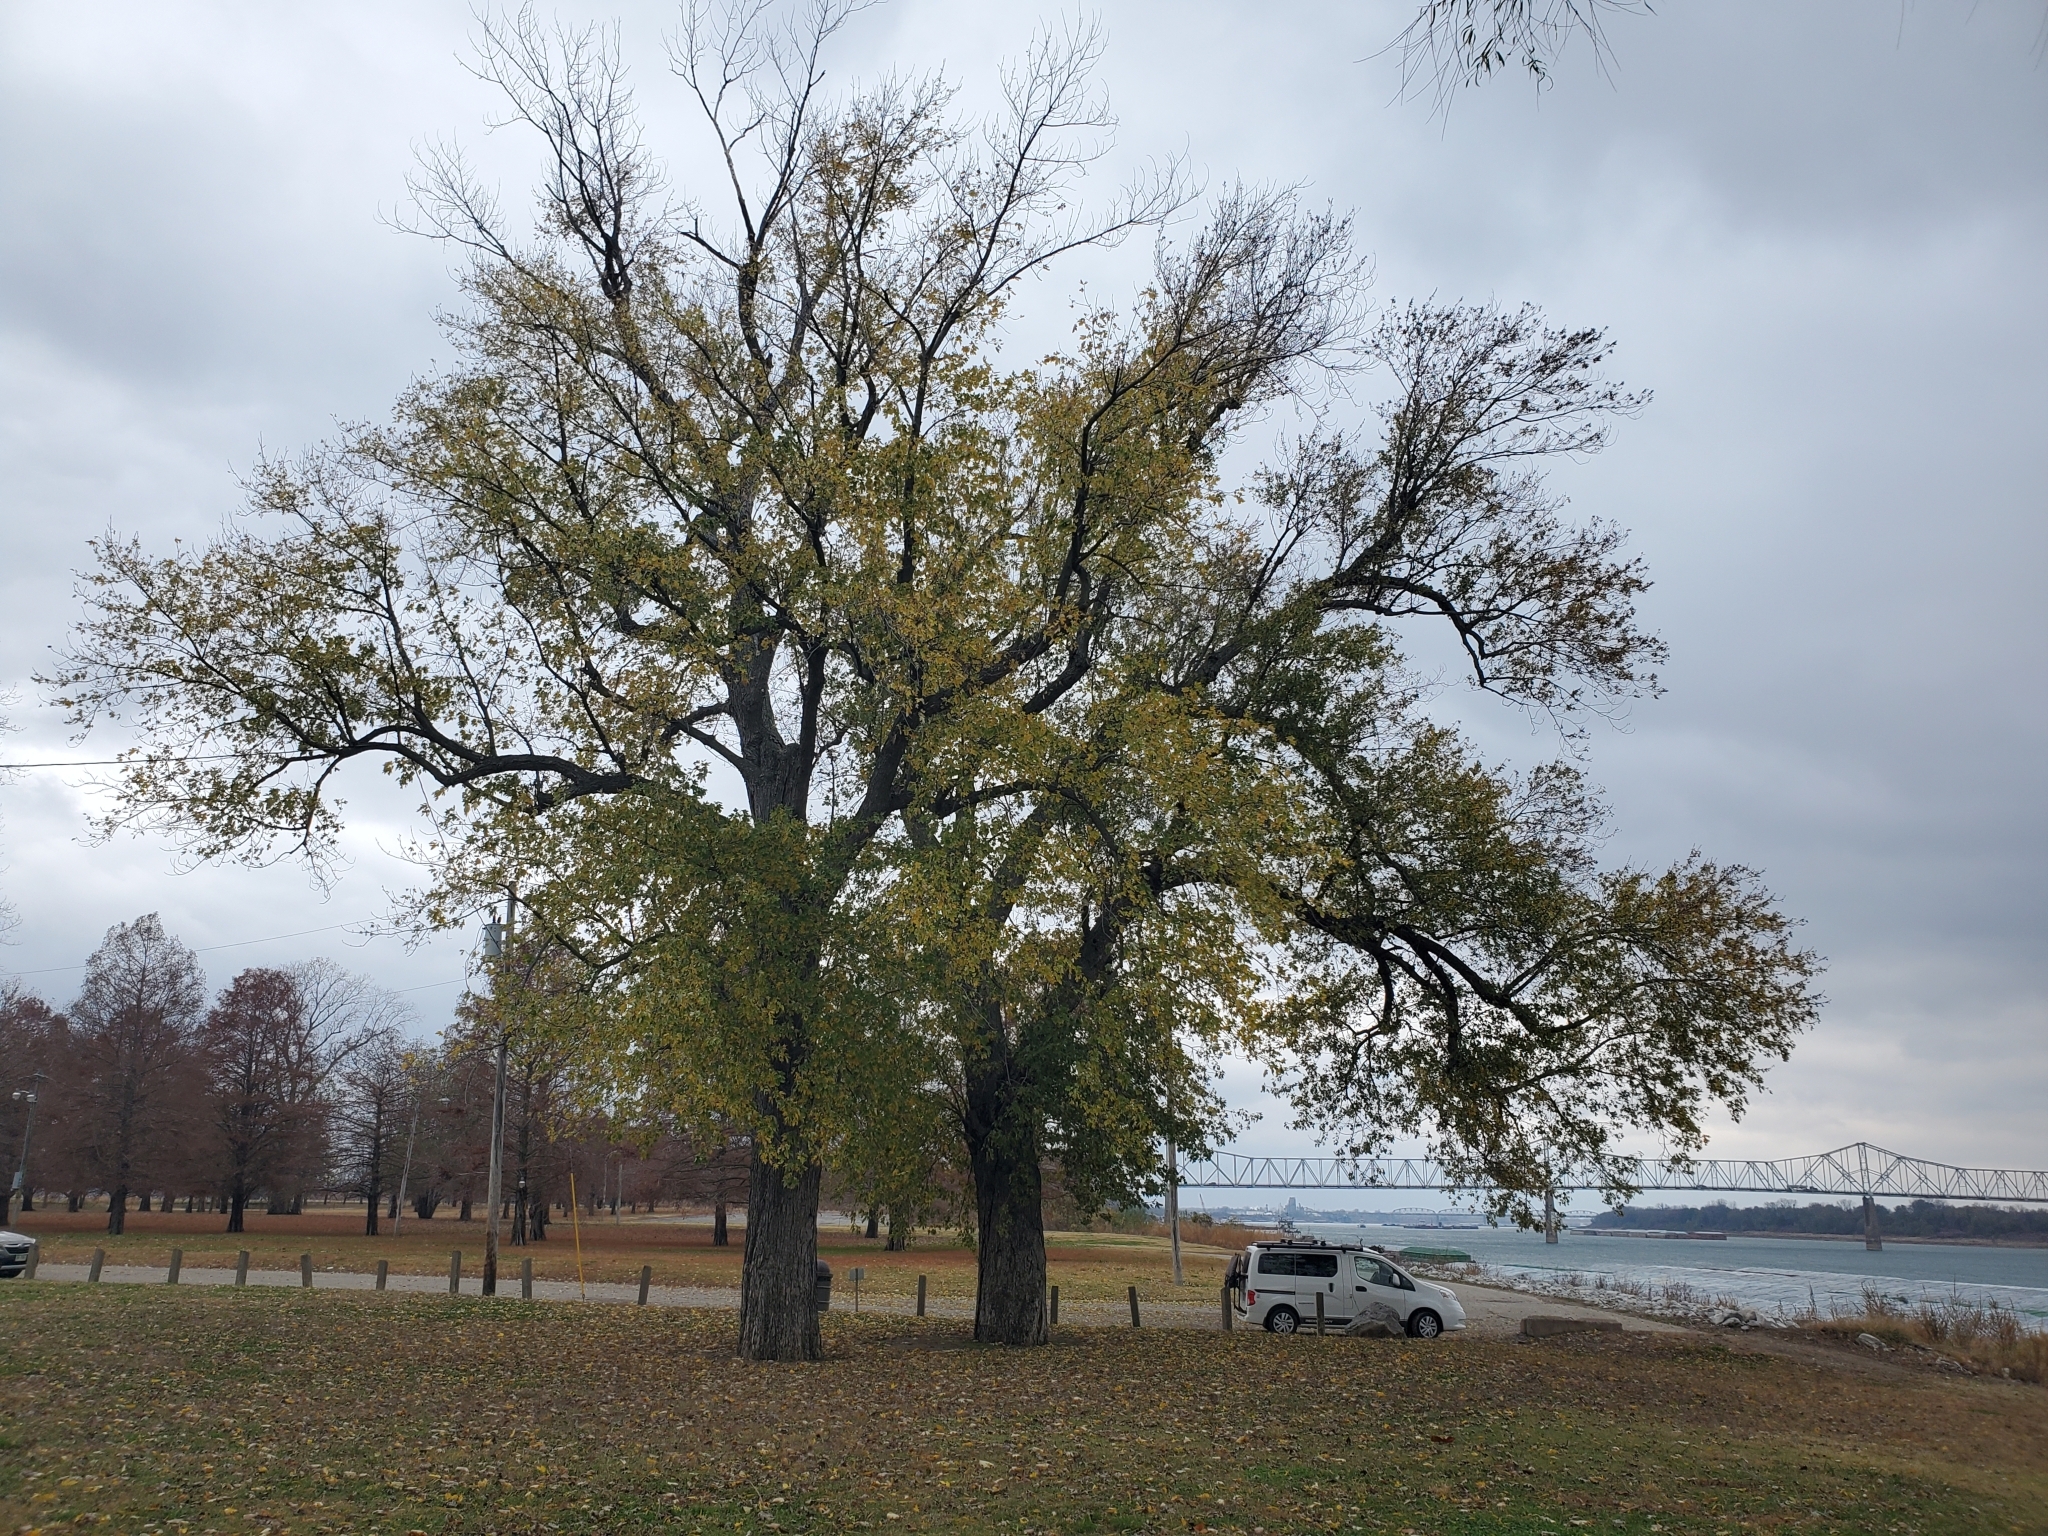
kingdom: Plantae
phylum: Tracheophyta
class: Magnoliopsida
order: Sapindales
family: Sapindaceae
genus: Acer
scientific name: Acer saccharinum
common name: Silver maple
